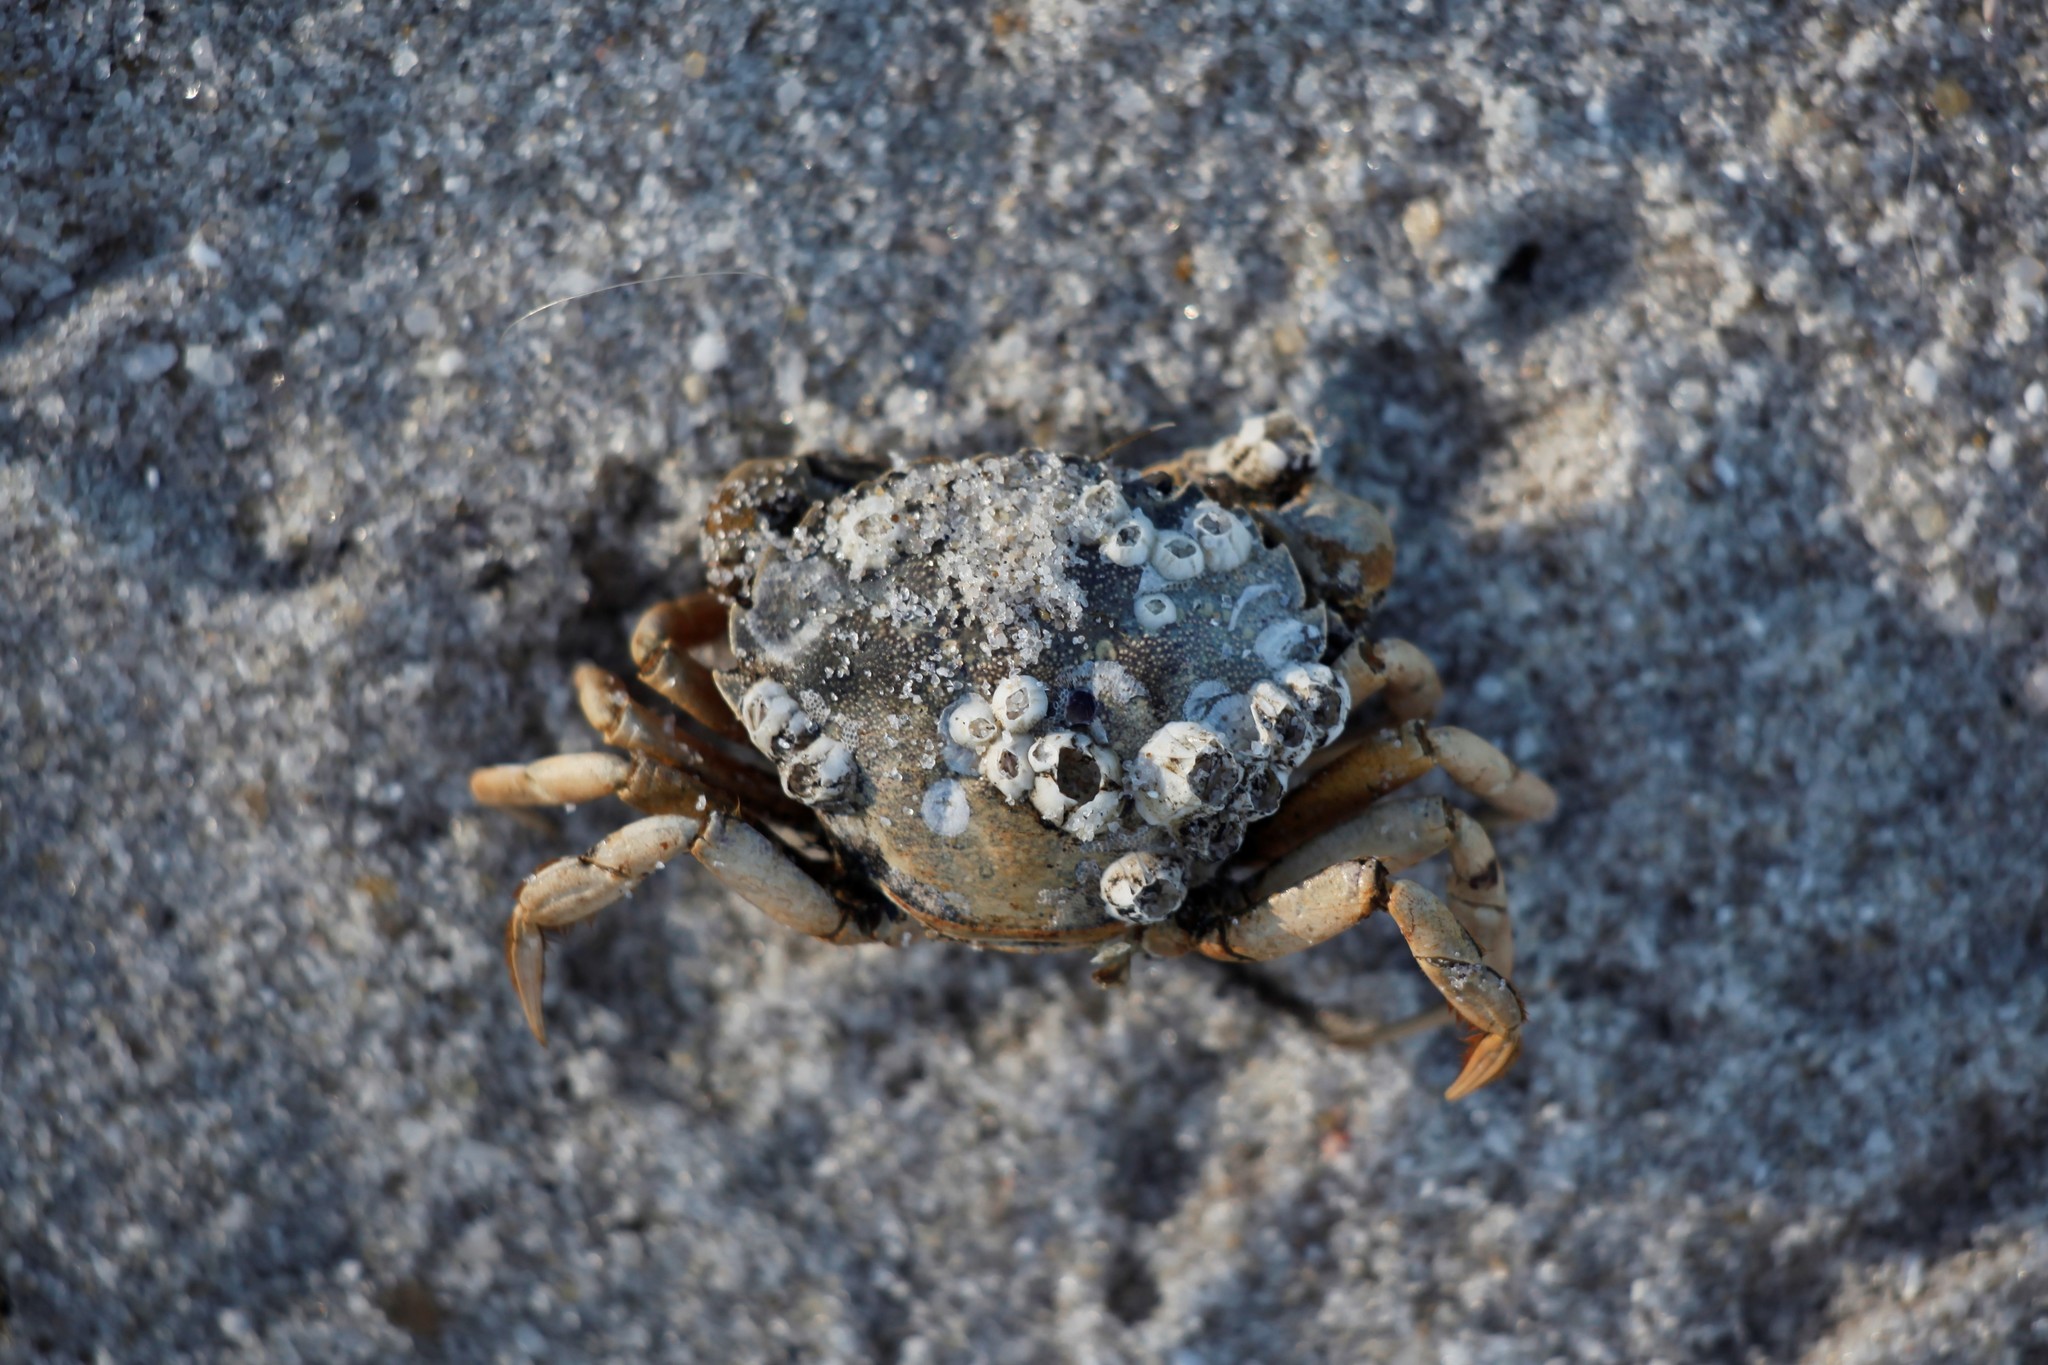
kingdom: Animalia
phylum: Arthropoda
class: Malacostraca
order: Decapoda
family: Carcinidae
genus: Carcinus
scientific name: Carcinus maenas
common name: European green crab
